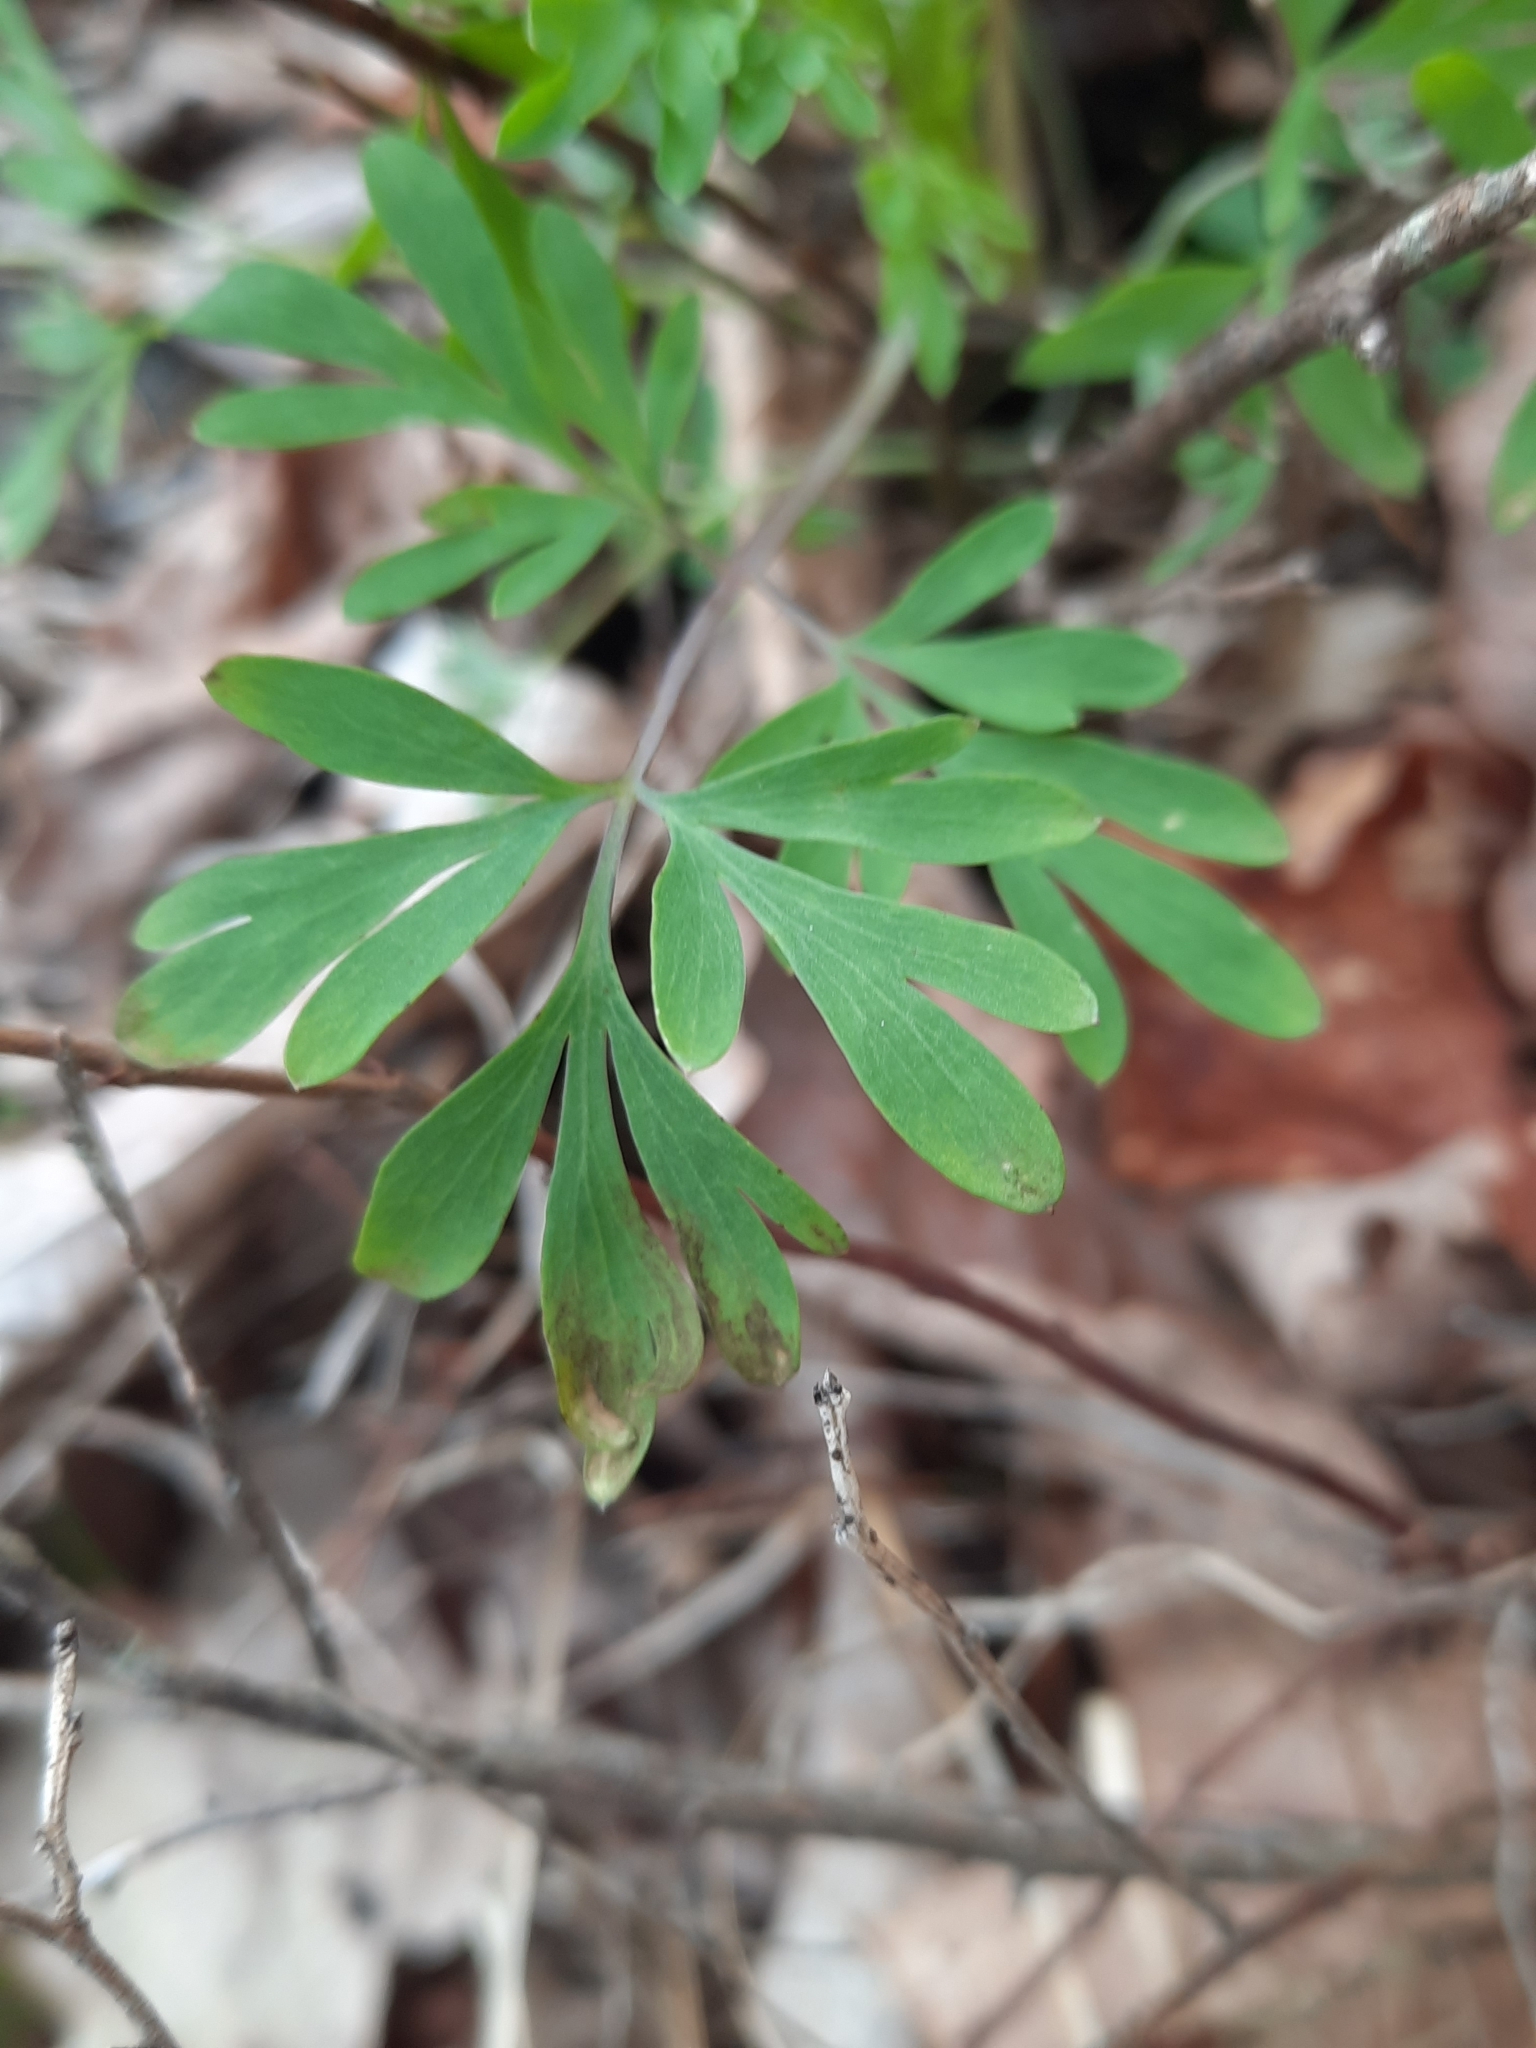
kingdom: Plantae
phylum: Tracheophyta
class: Magnoliopsida
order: Ranunculales
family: Papaveraceae
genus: Capnoides
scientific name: Capnoides sempervirens
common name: Rock harlequin
